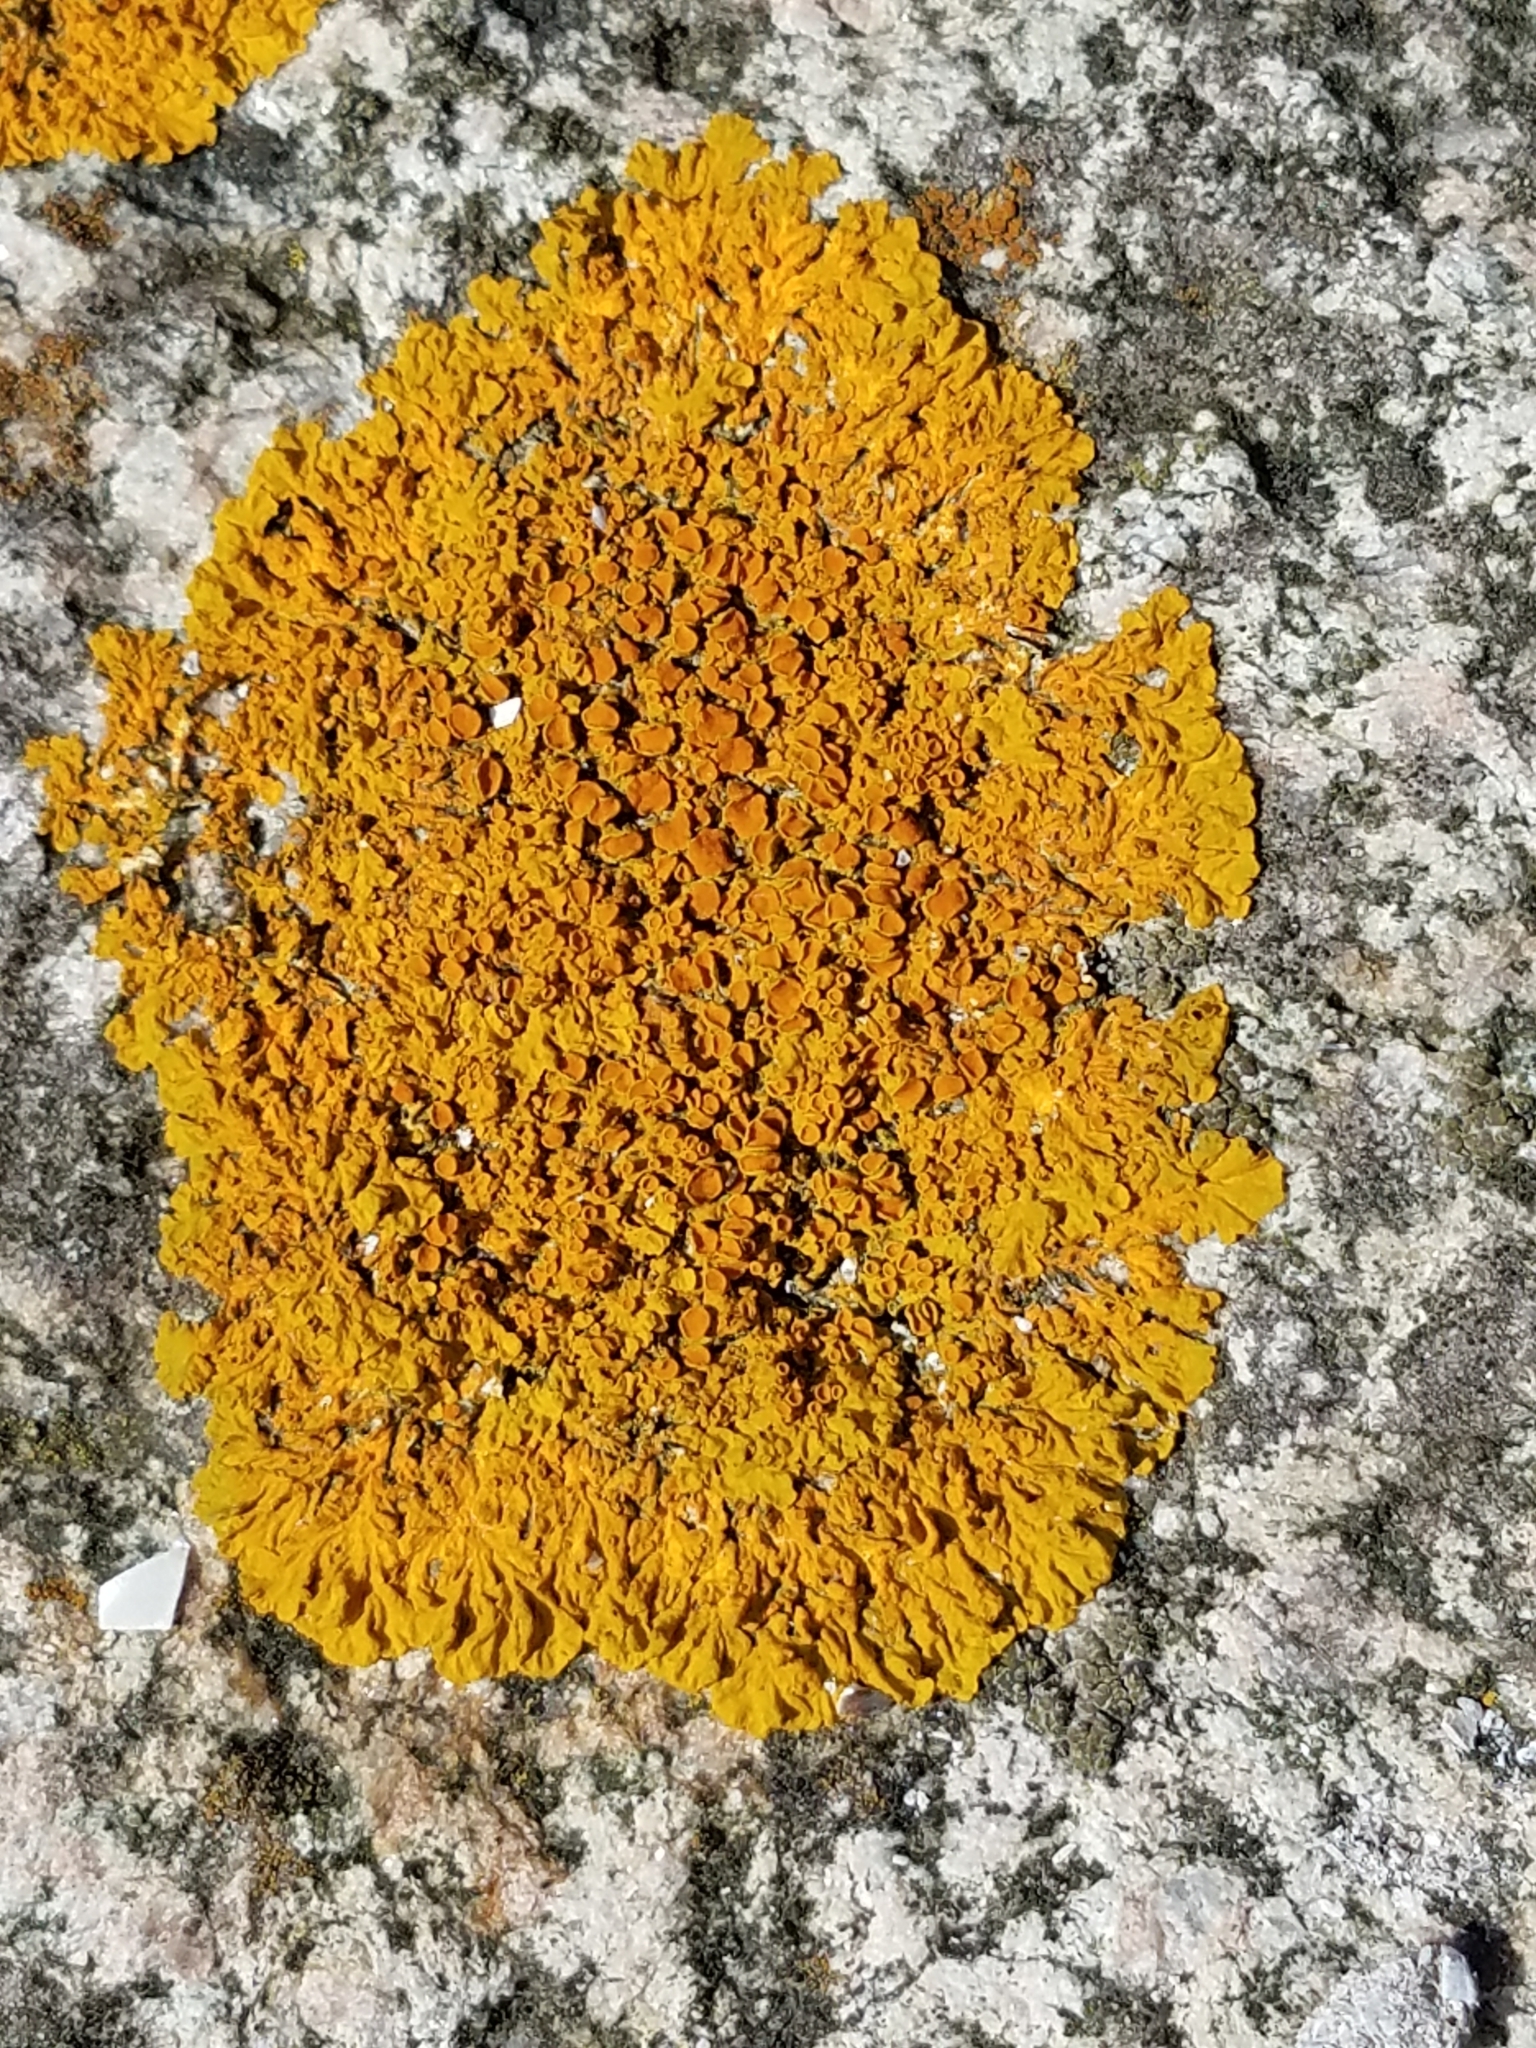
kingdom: Fungi
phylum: Ascomycota
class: Lecanoromycetes
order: Teloschistales
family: Teloschistaceae
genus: Xanthoria
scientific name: Xanthoria parietina
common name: Common orange lichen
